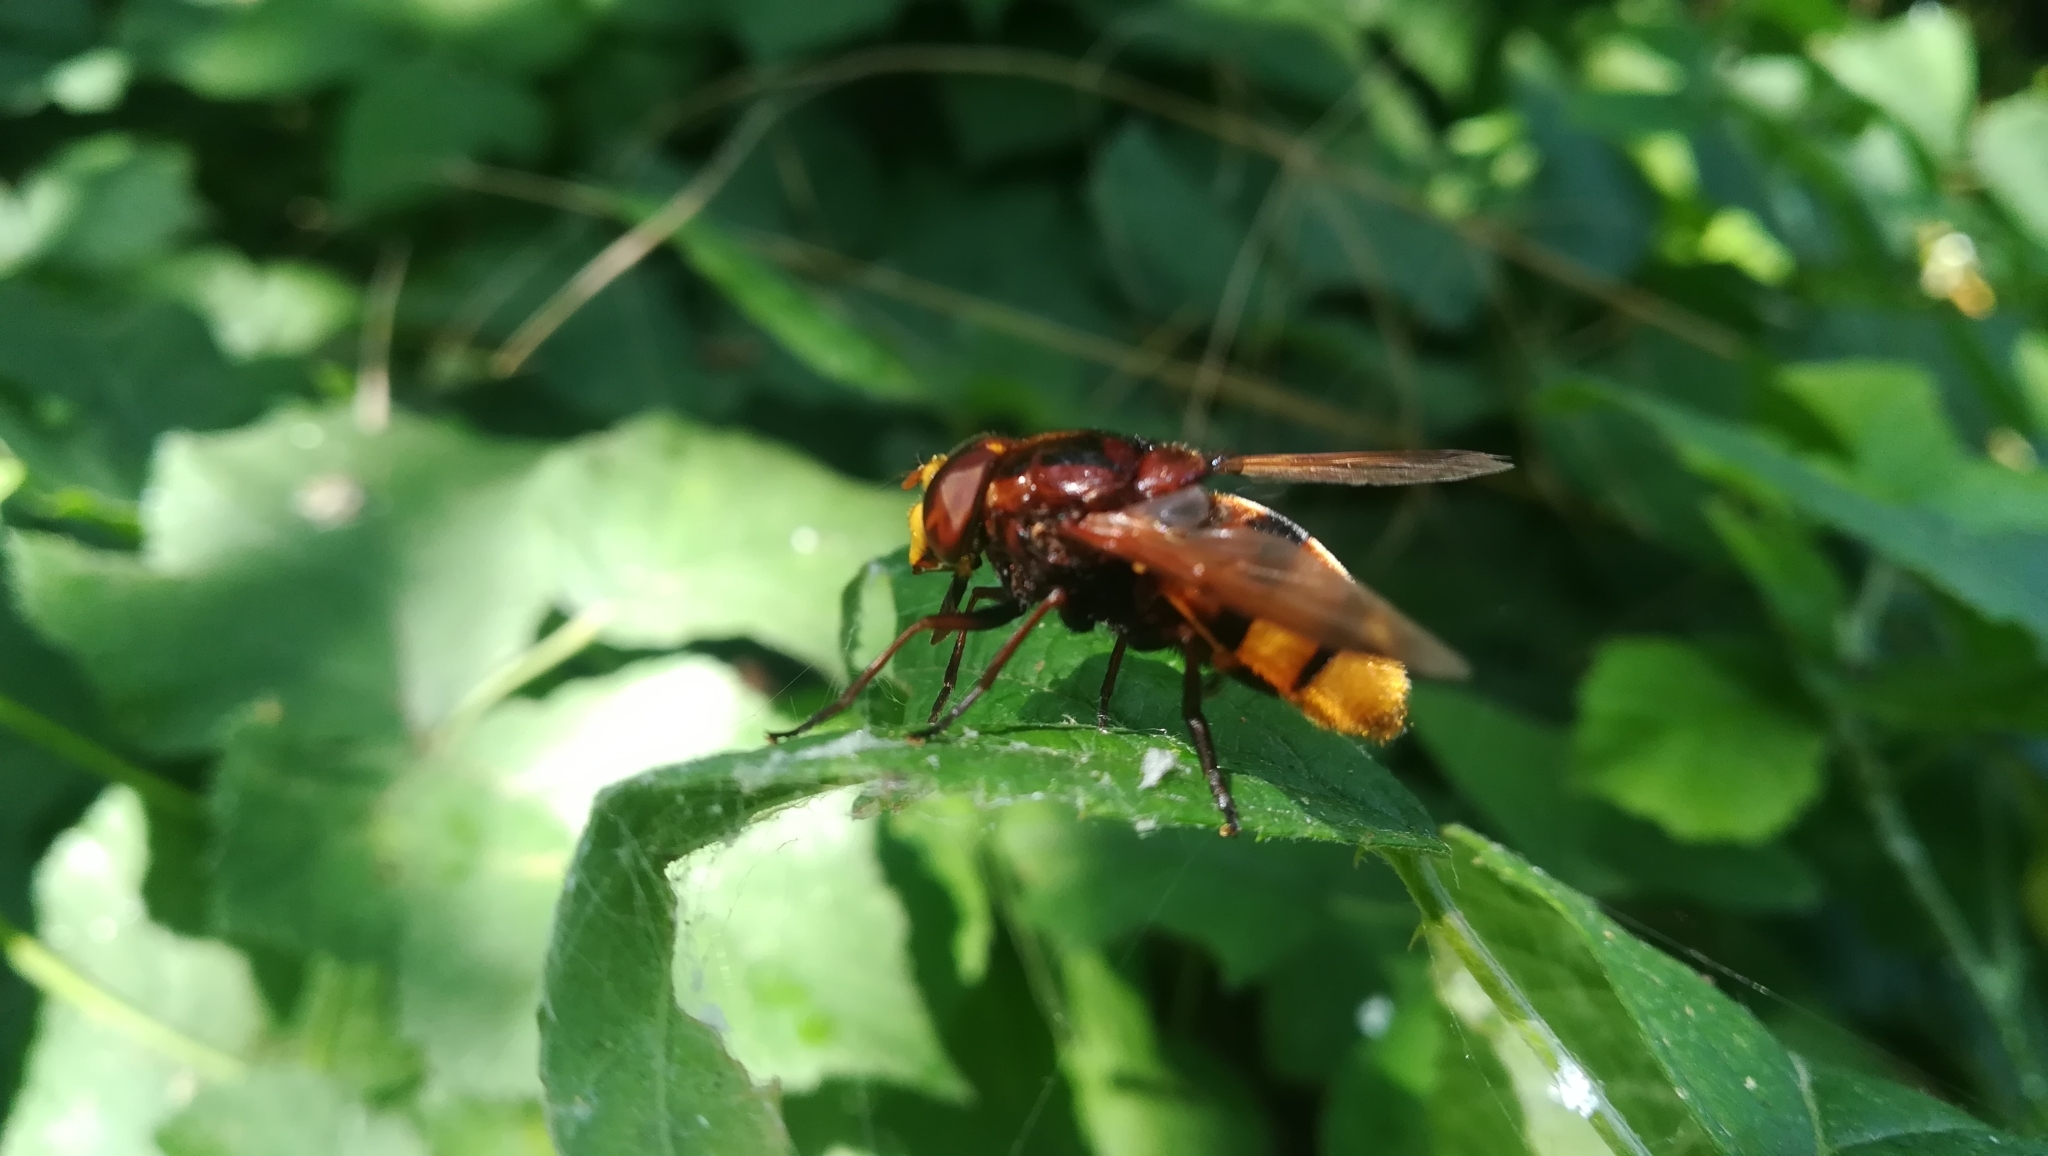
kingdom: Animalia
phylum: Arthropoda
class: Insecta
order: Diptera
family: Syrphidae
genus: Volucella
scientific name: Volucella zonaria
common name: Hornet hoverfly
